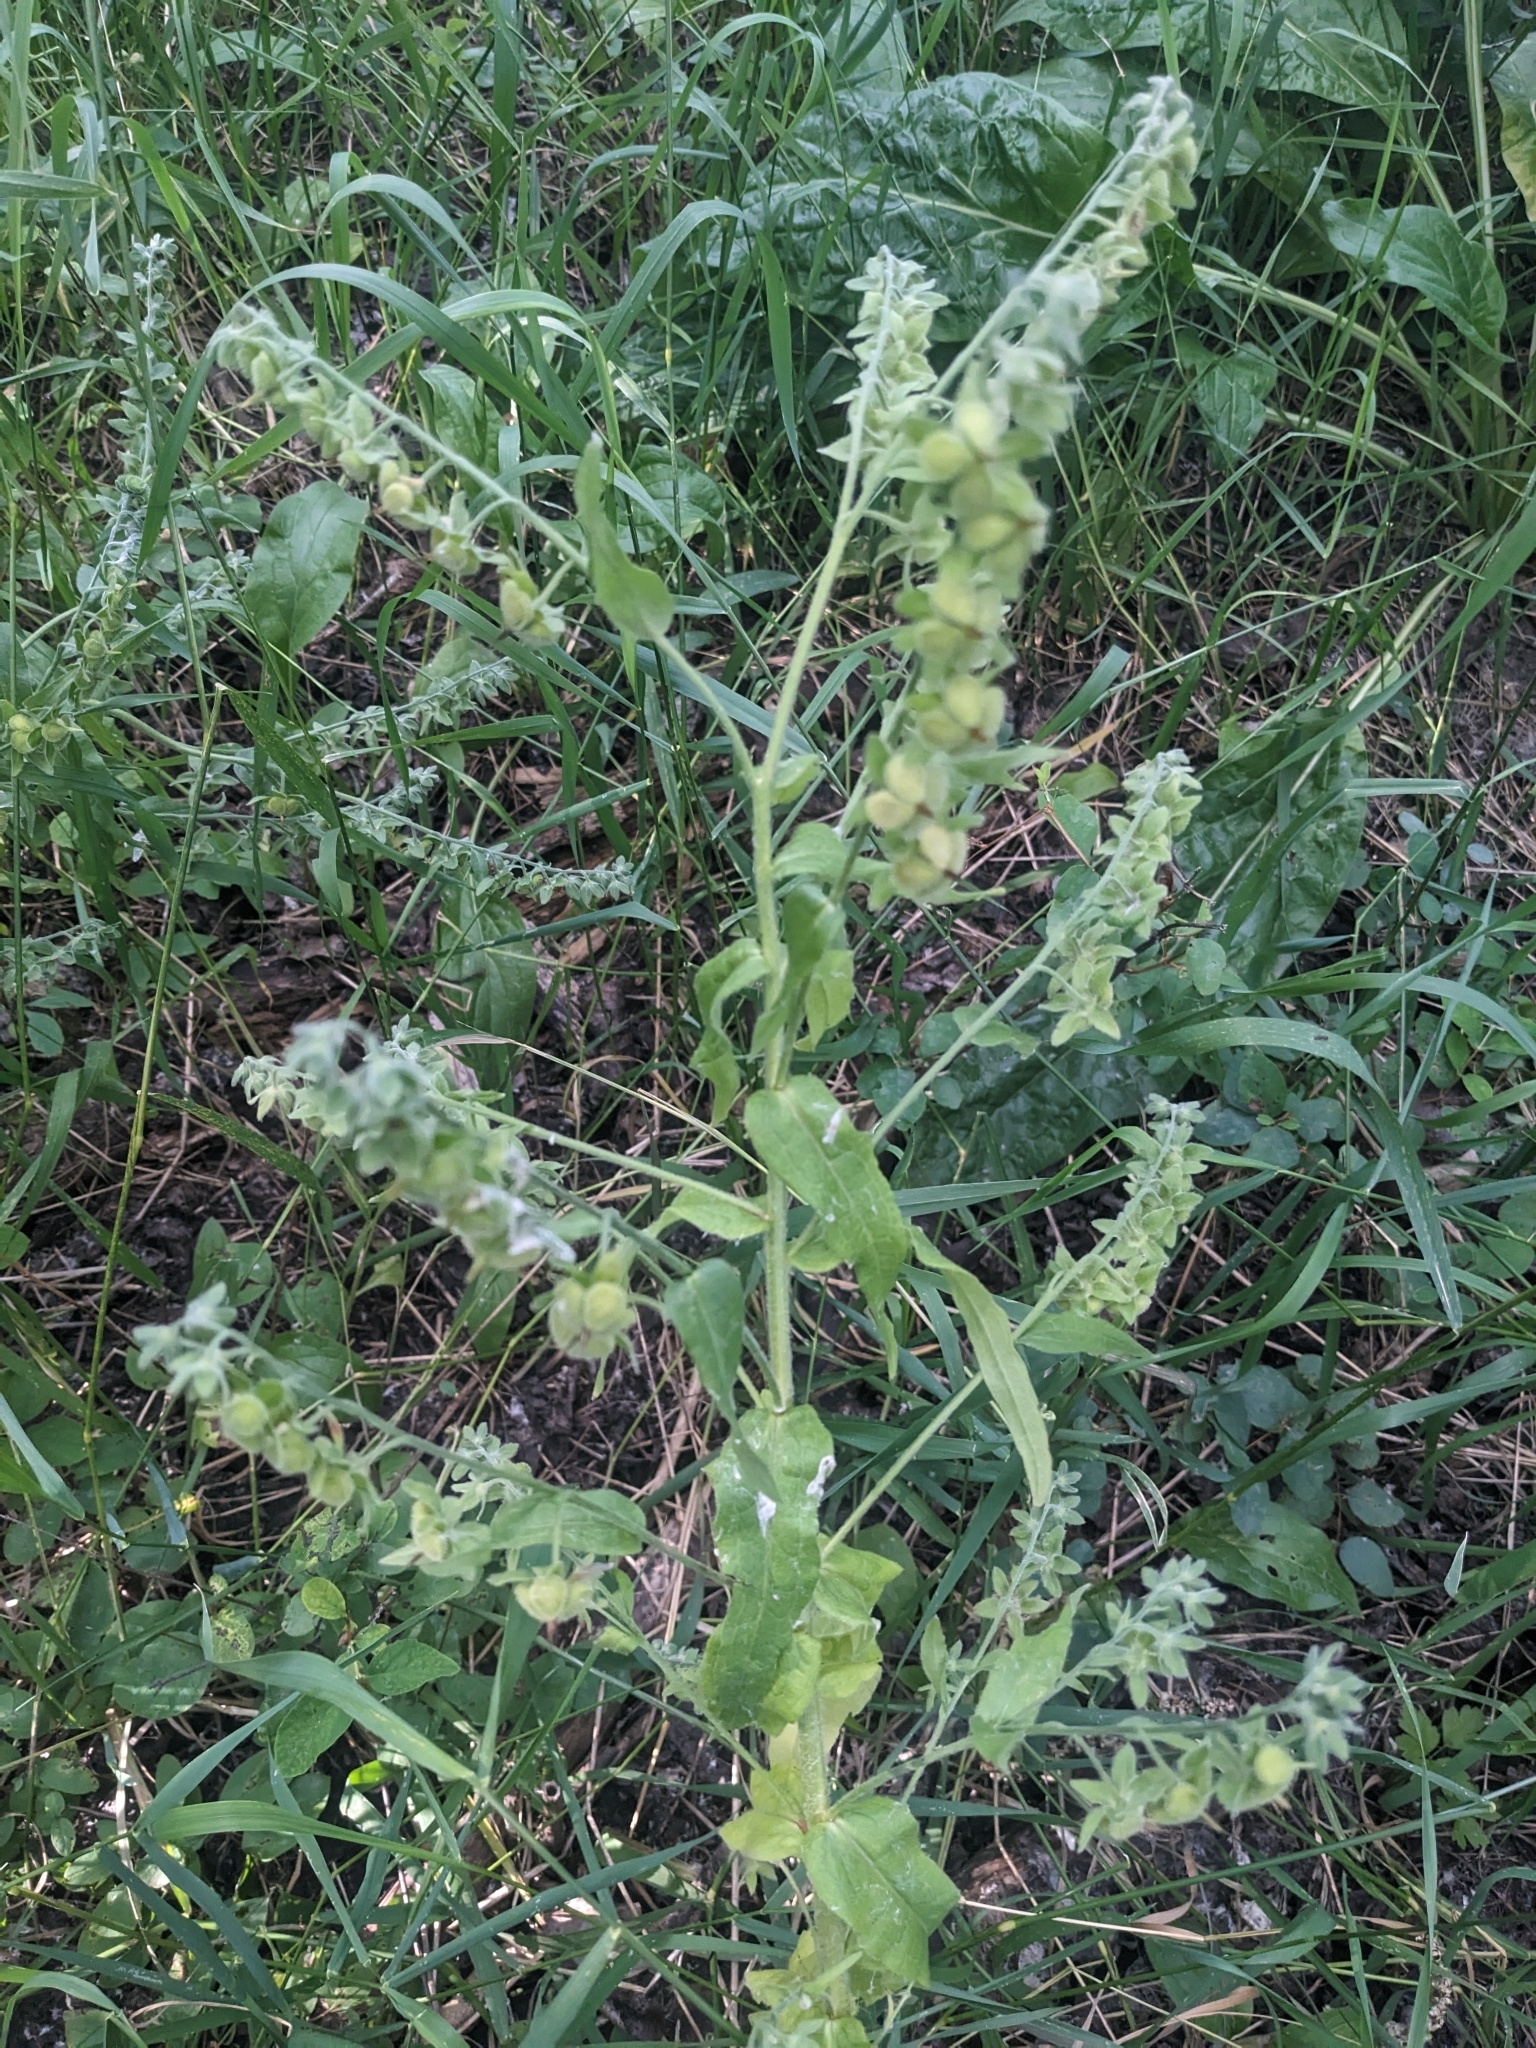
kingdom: Plantae
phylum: Tracheophyta
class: Magnoliopsida
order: Boraginales
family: Boraginaceae
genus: Cynoglossum
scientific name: Cynoglossum officinale
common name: Hound's-tongue
